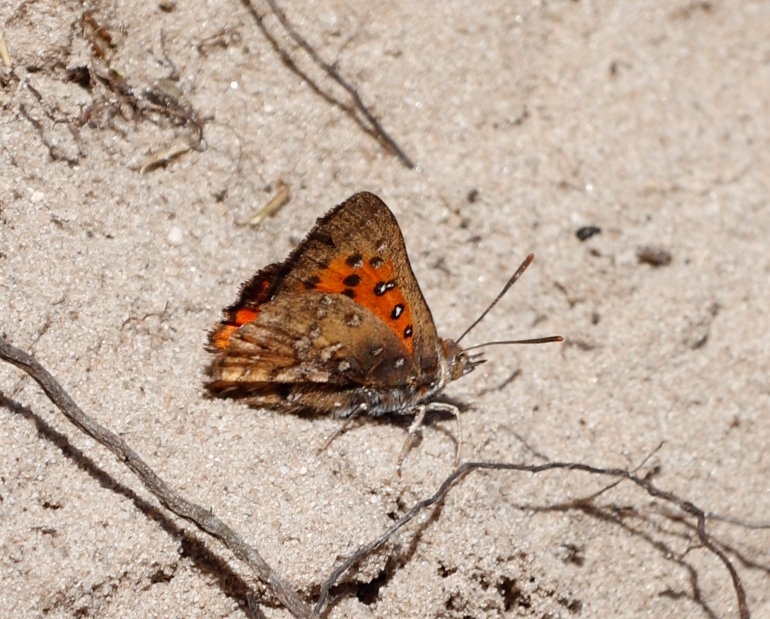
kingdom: Animalia
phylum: Arthropoda
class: Insecta
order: Lepidoptera
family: Lycaenidae
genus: Aloeides
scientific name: Aloeides thyra
